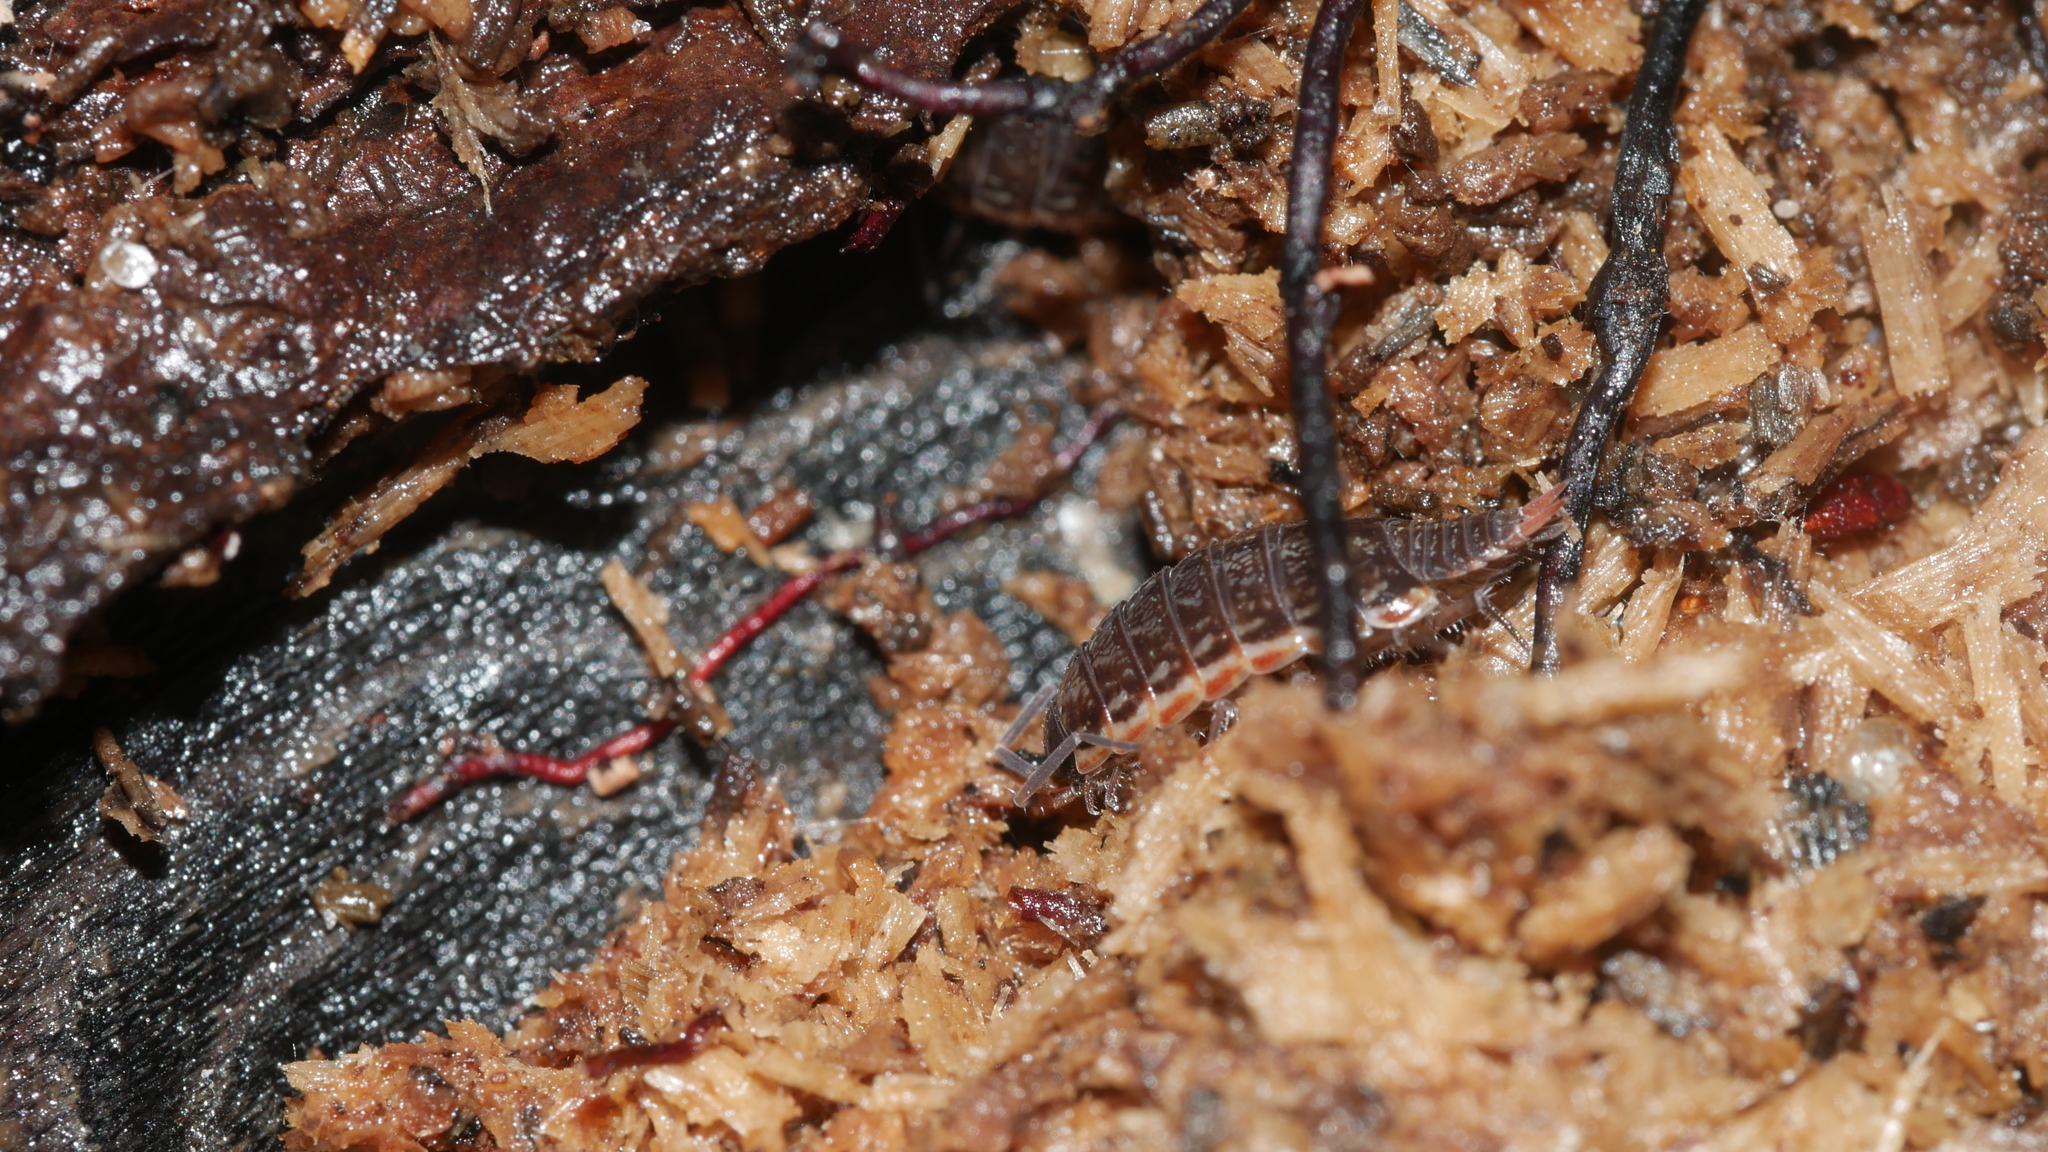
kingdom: Animalia
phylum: Arthropoda
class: Malacostraca
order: Isopoda
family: Philosciidae
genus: Philoscia
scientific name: Philoscia muscorum
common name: Common striped woodlouse
